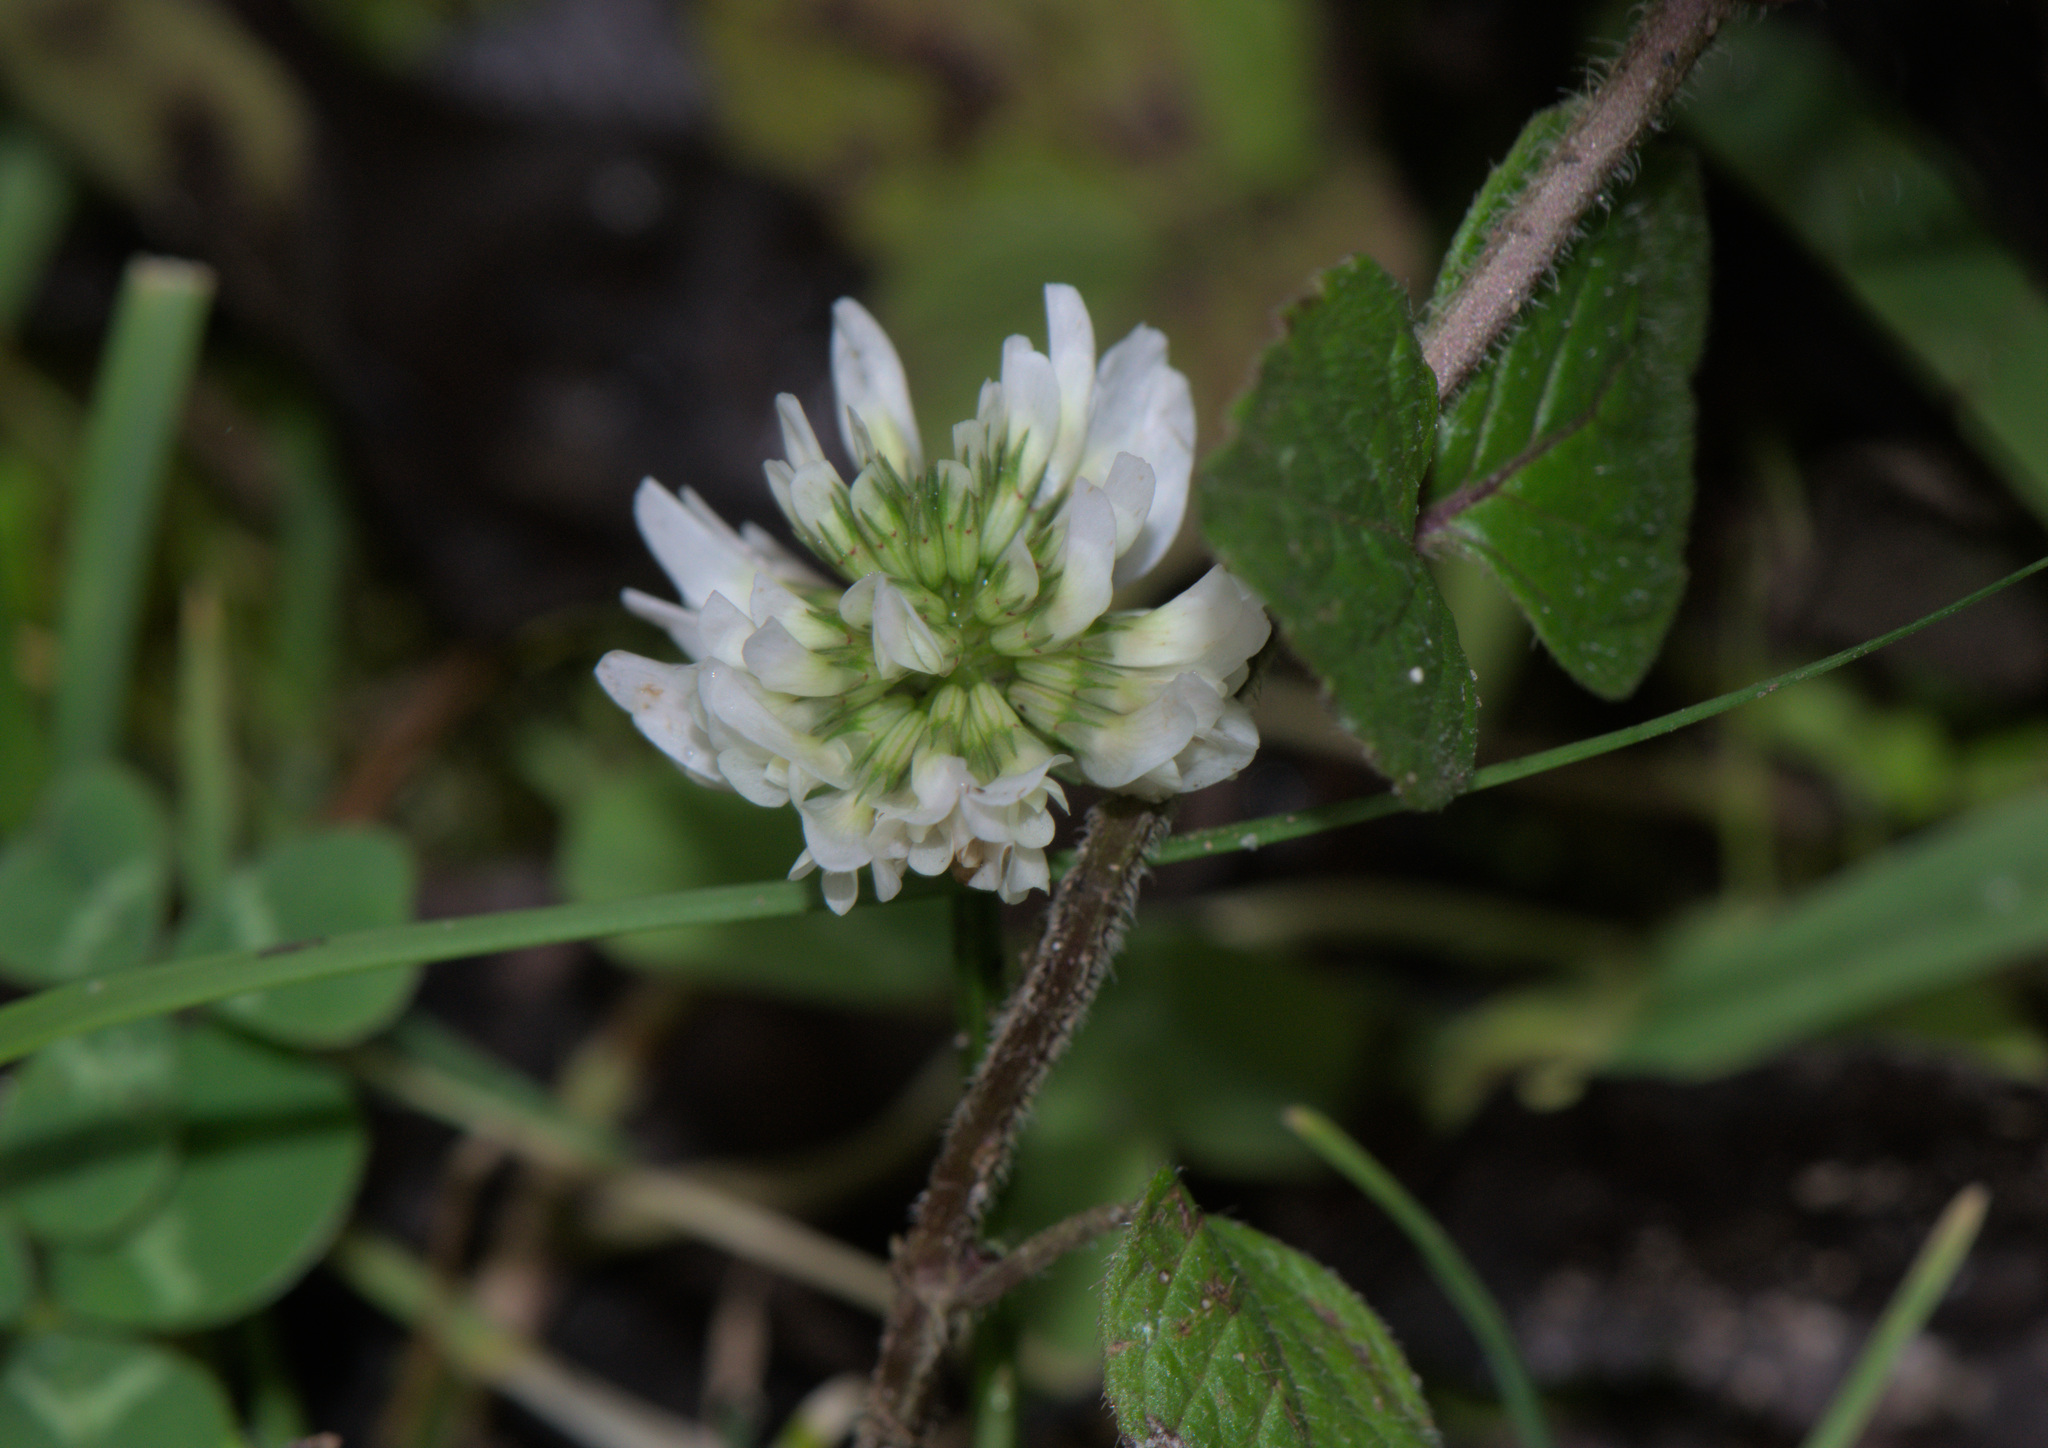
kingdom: Plantae
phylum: Tracheophyta
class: Magnoliopsida
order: Fabales
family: Fabaceae
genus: Trifolium
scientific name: Trifolium repens
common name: White clover
